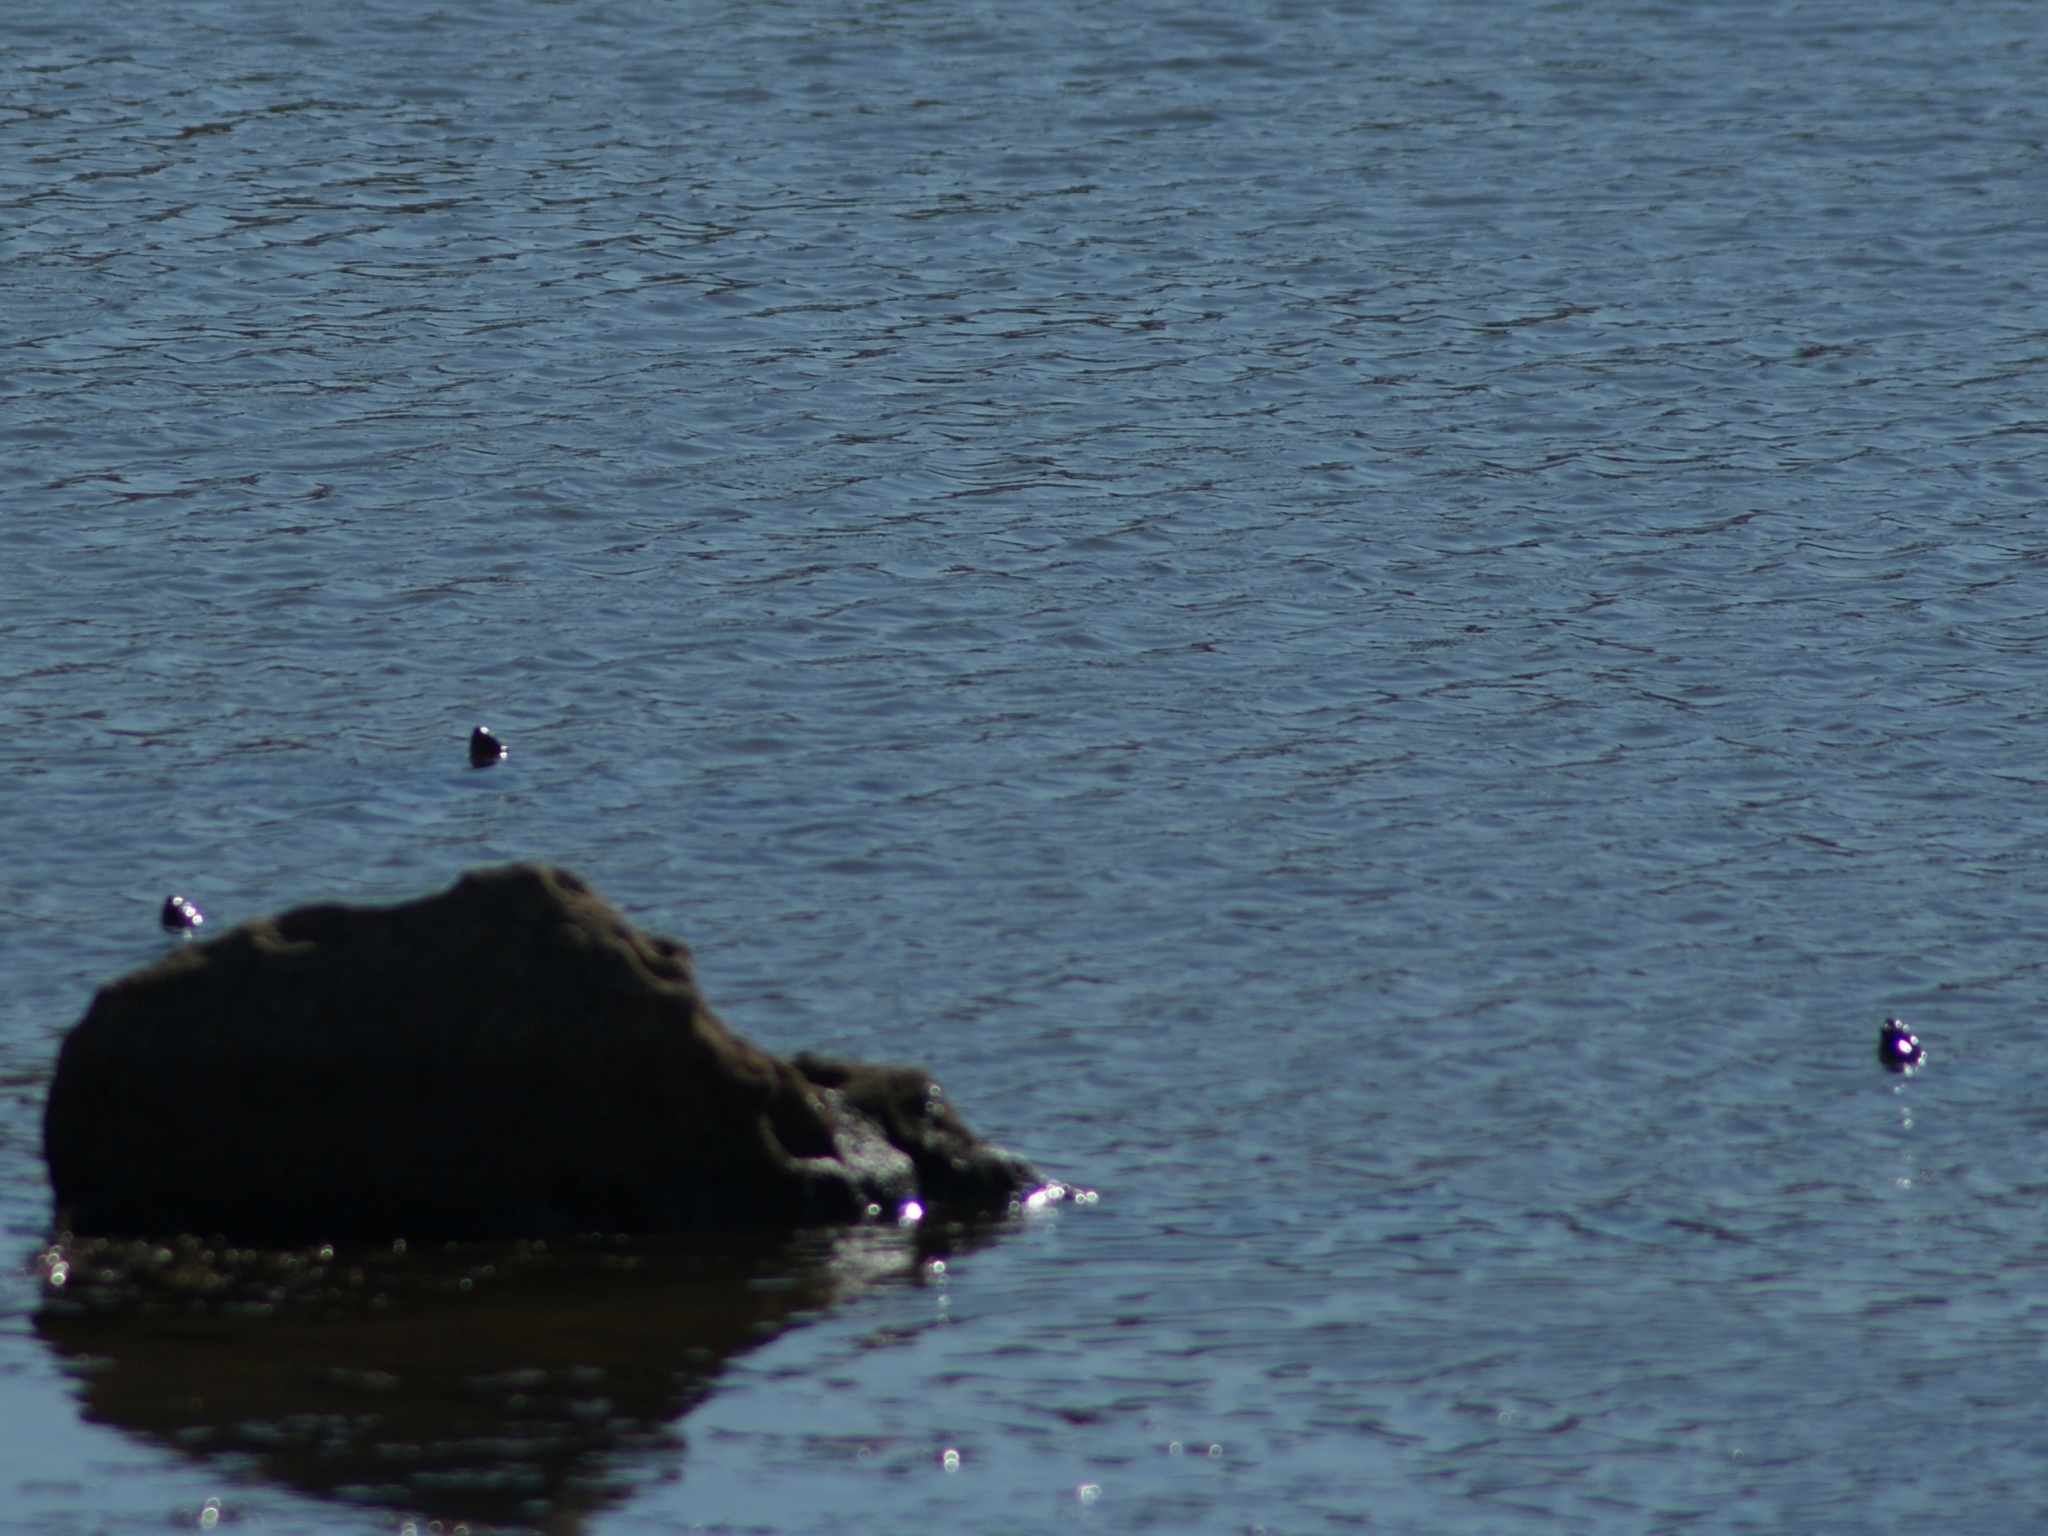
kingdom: Animalia
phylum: Chordata
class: Testudines
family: Geoemydidae
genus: Mauremys
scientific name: Mauremys leprosa
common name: Mediterranean pond turtle
